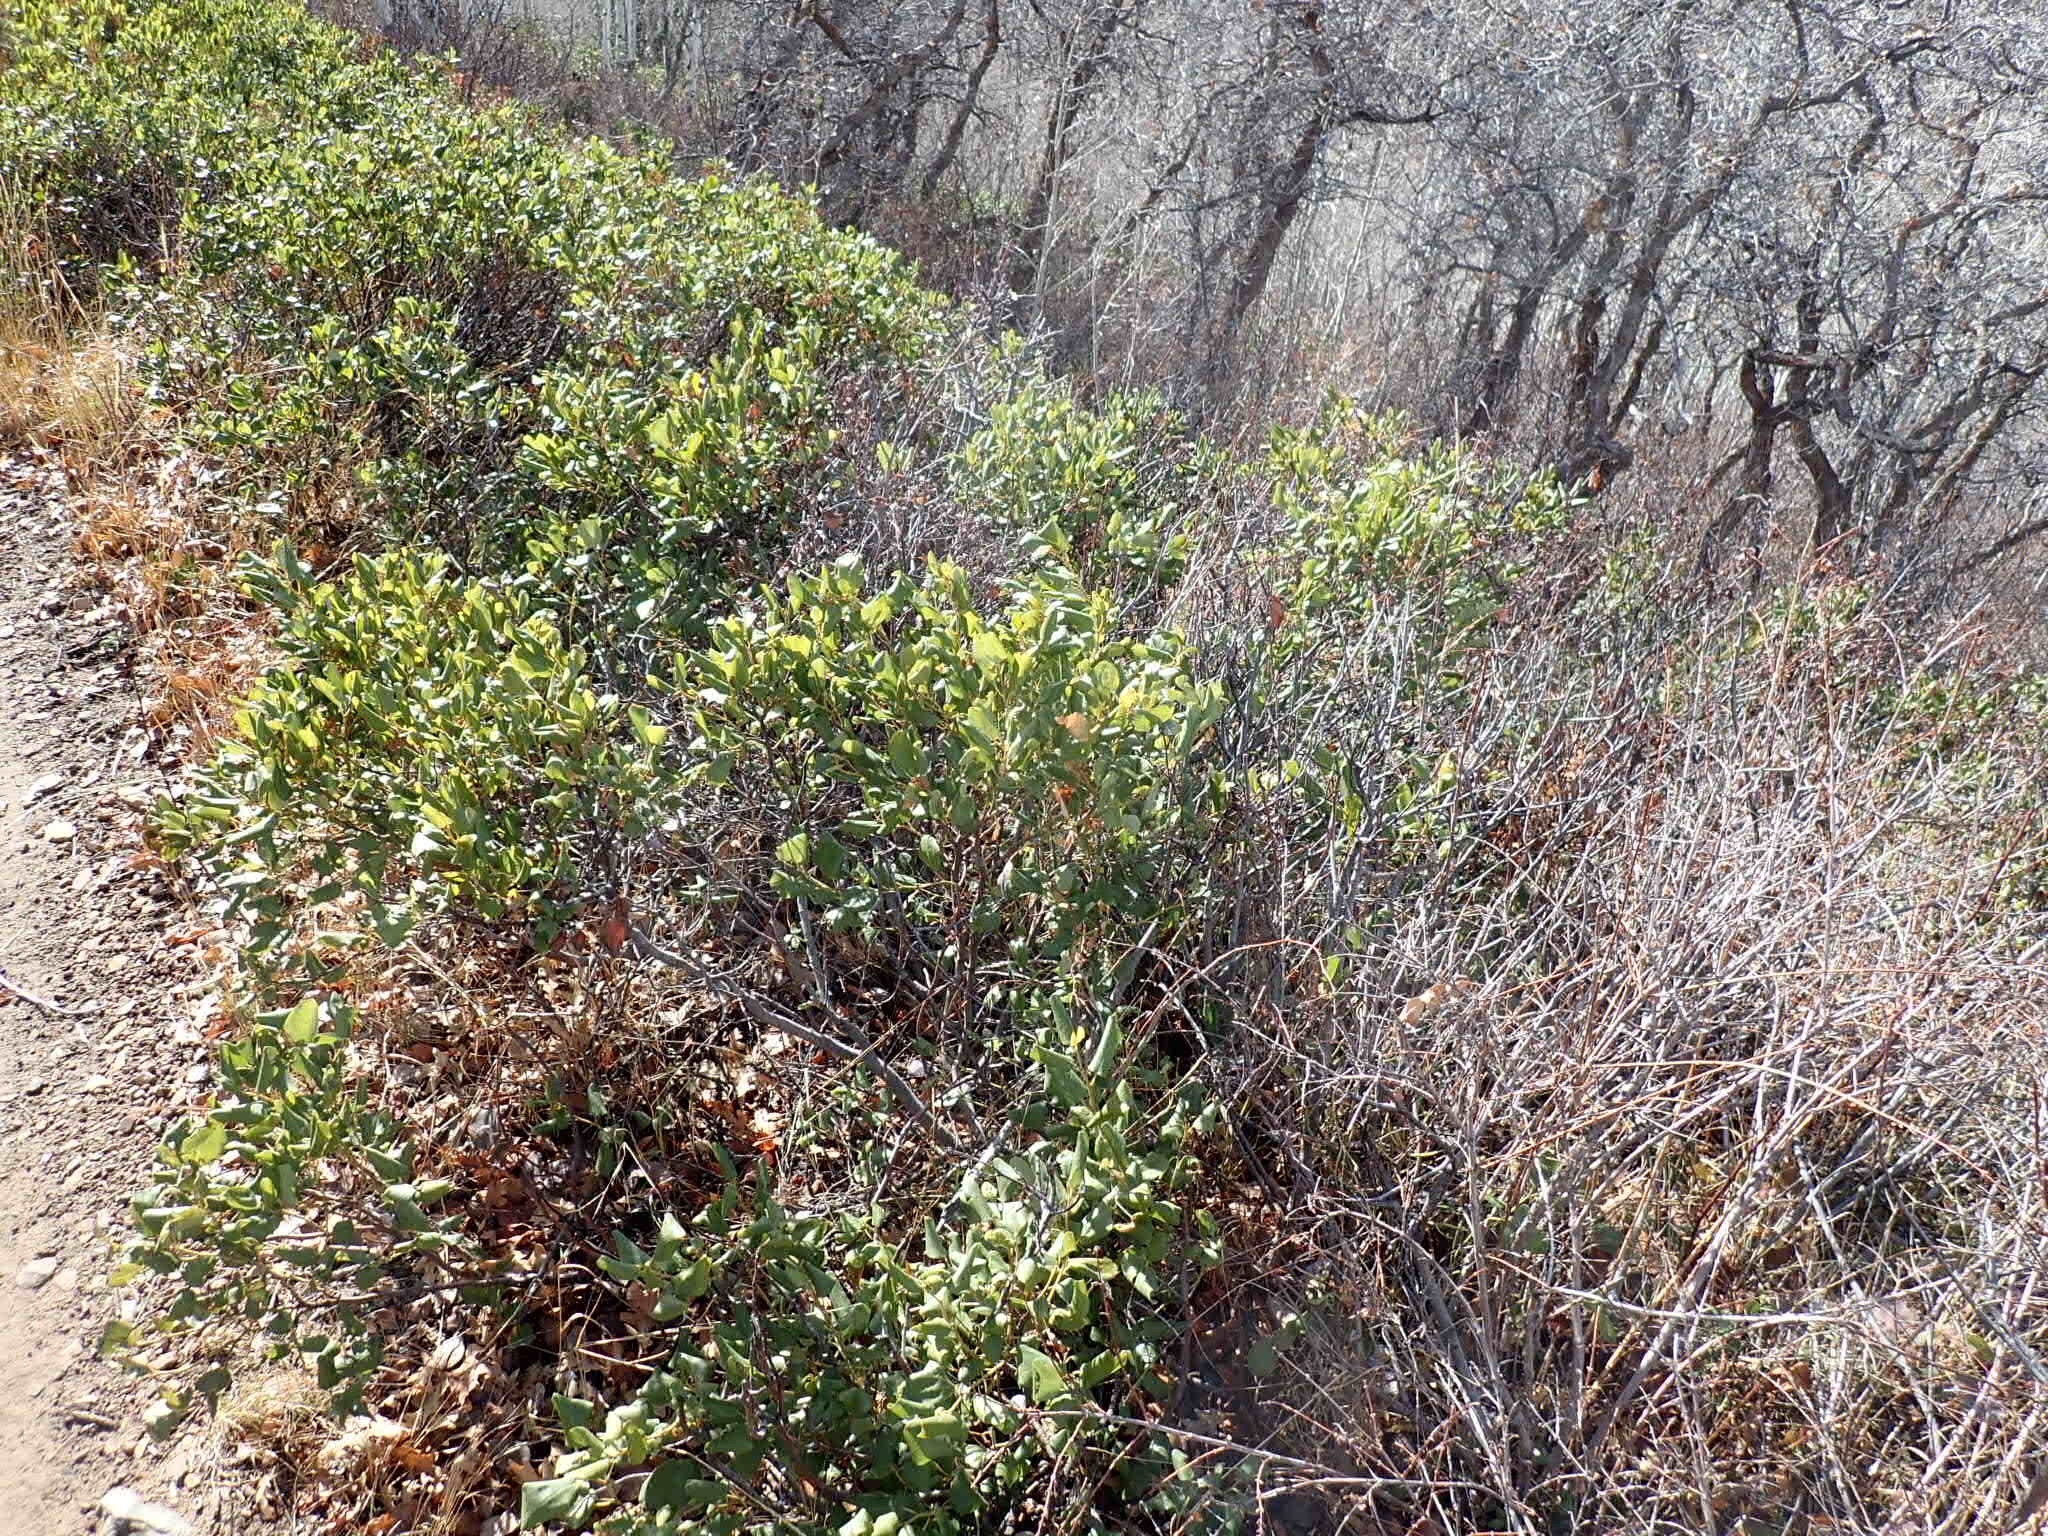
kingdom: Plantae
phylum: Tracheophyta
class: Magnoliopsida
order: Rosales
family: Rhamnaceae
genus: Ceanothus
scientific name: Ceanothus velutinus
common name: Snowbrush
